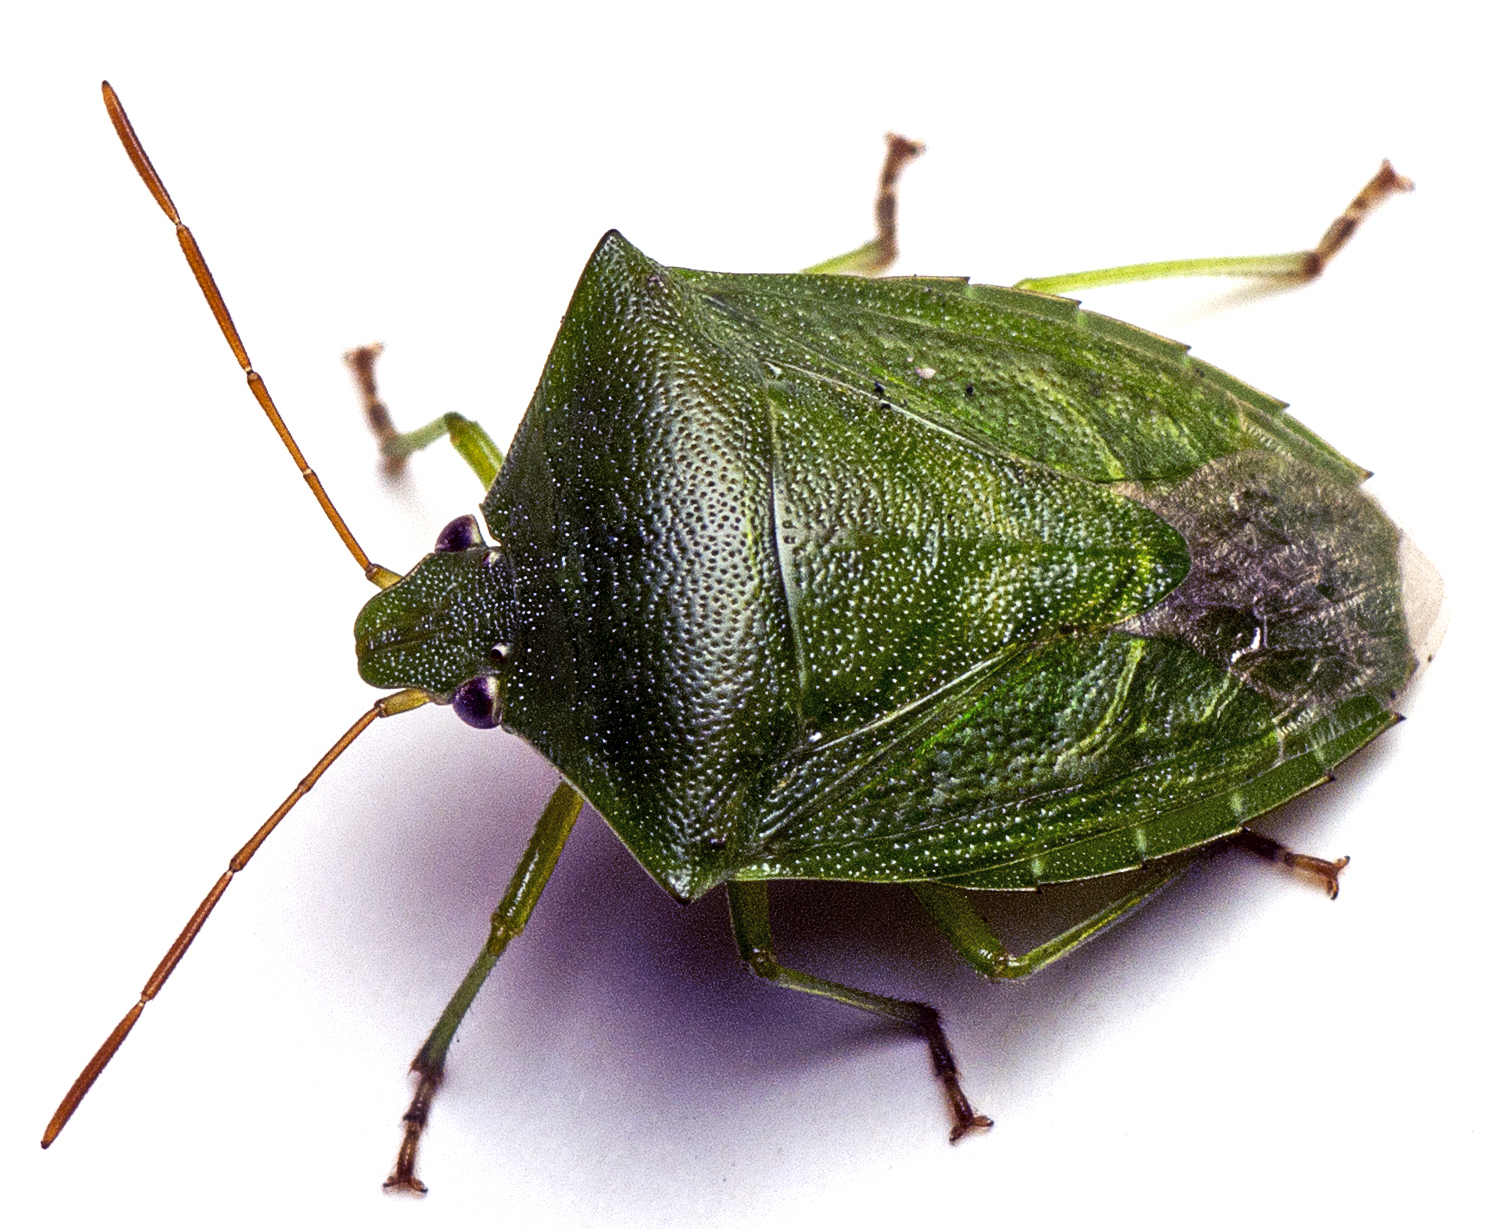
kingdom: Animalia
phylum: Arthropoda
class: Insecta
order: Hemiptera
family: Pentatomidae
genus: Cuspicona
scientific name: Cuspicona simplex
